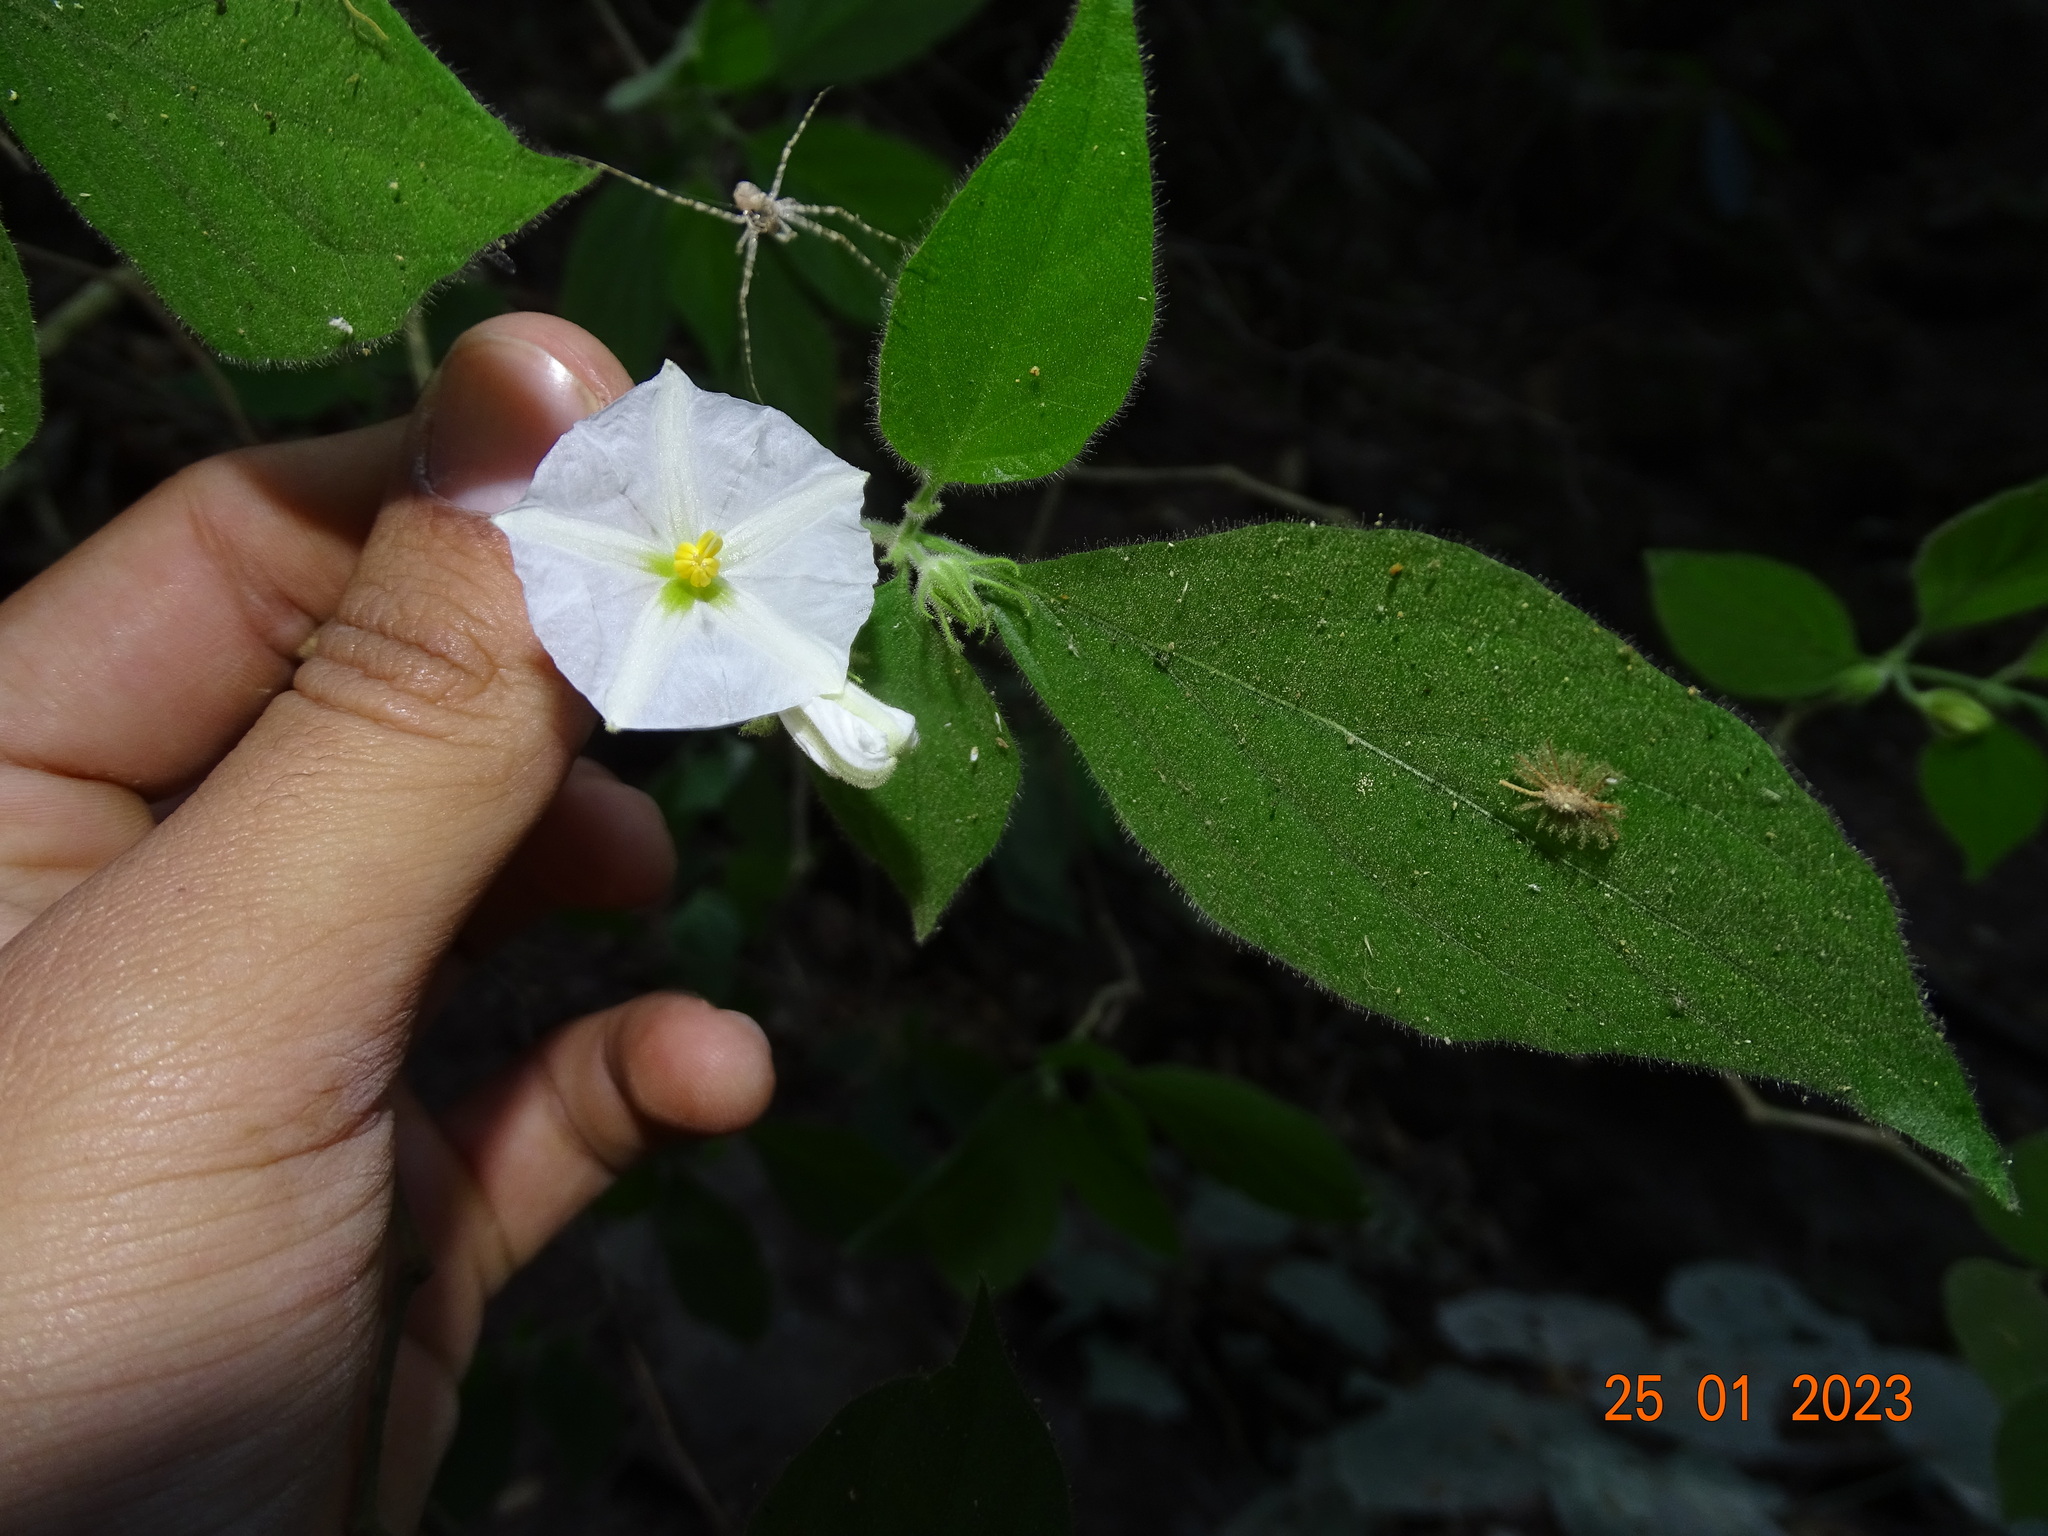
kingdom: Plantae
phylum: Tracheophyta
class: Magnoliopsida
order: Solanales
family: Solanaceae
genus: Lycianthes
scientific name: Lycianthes surotatensis
